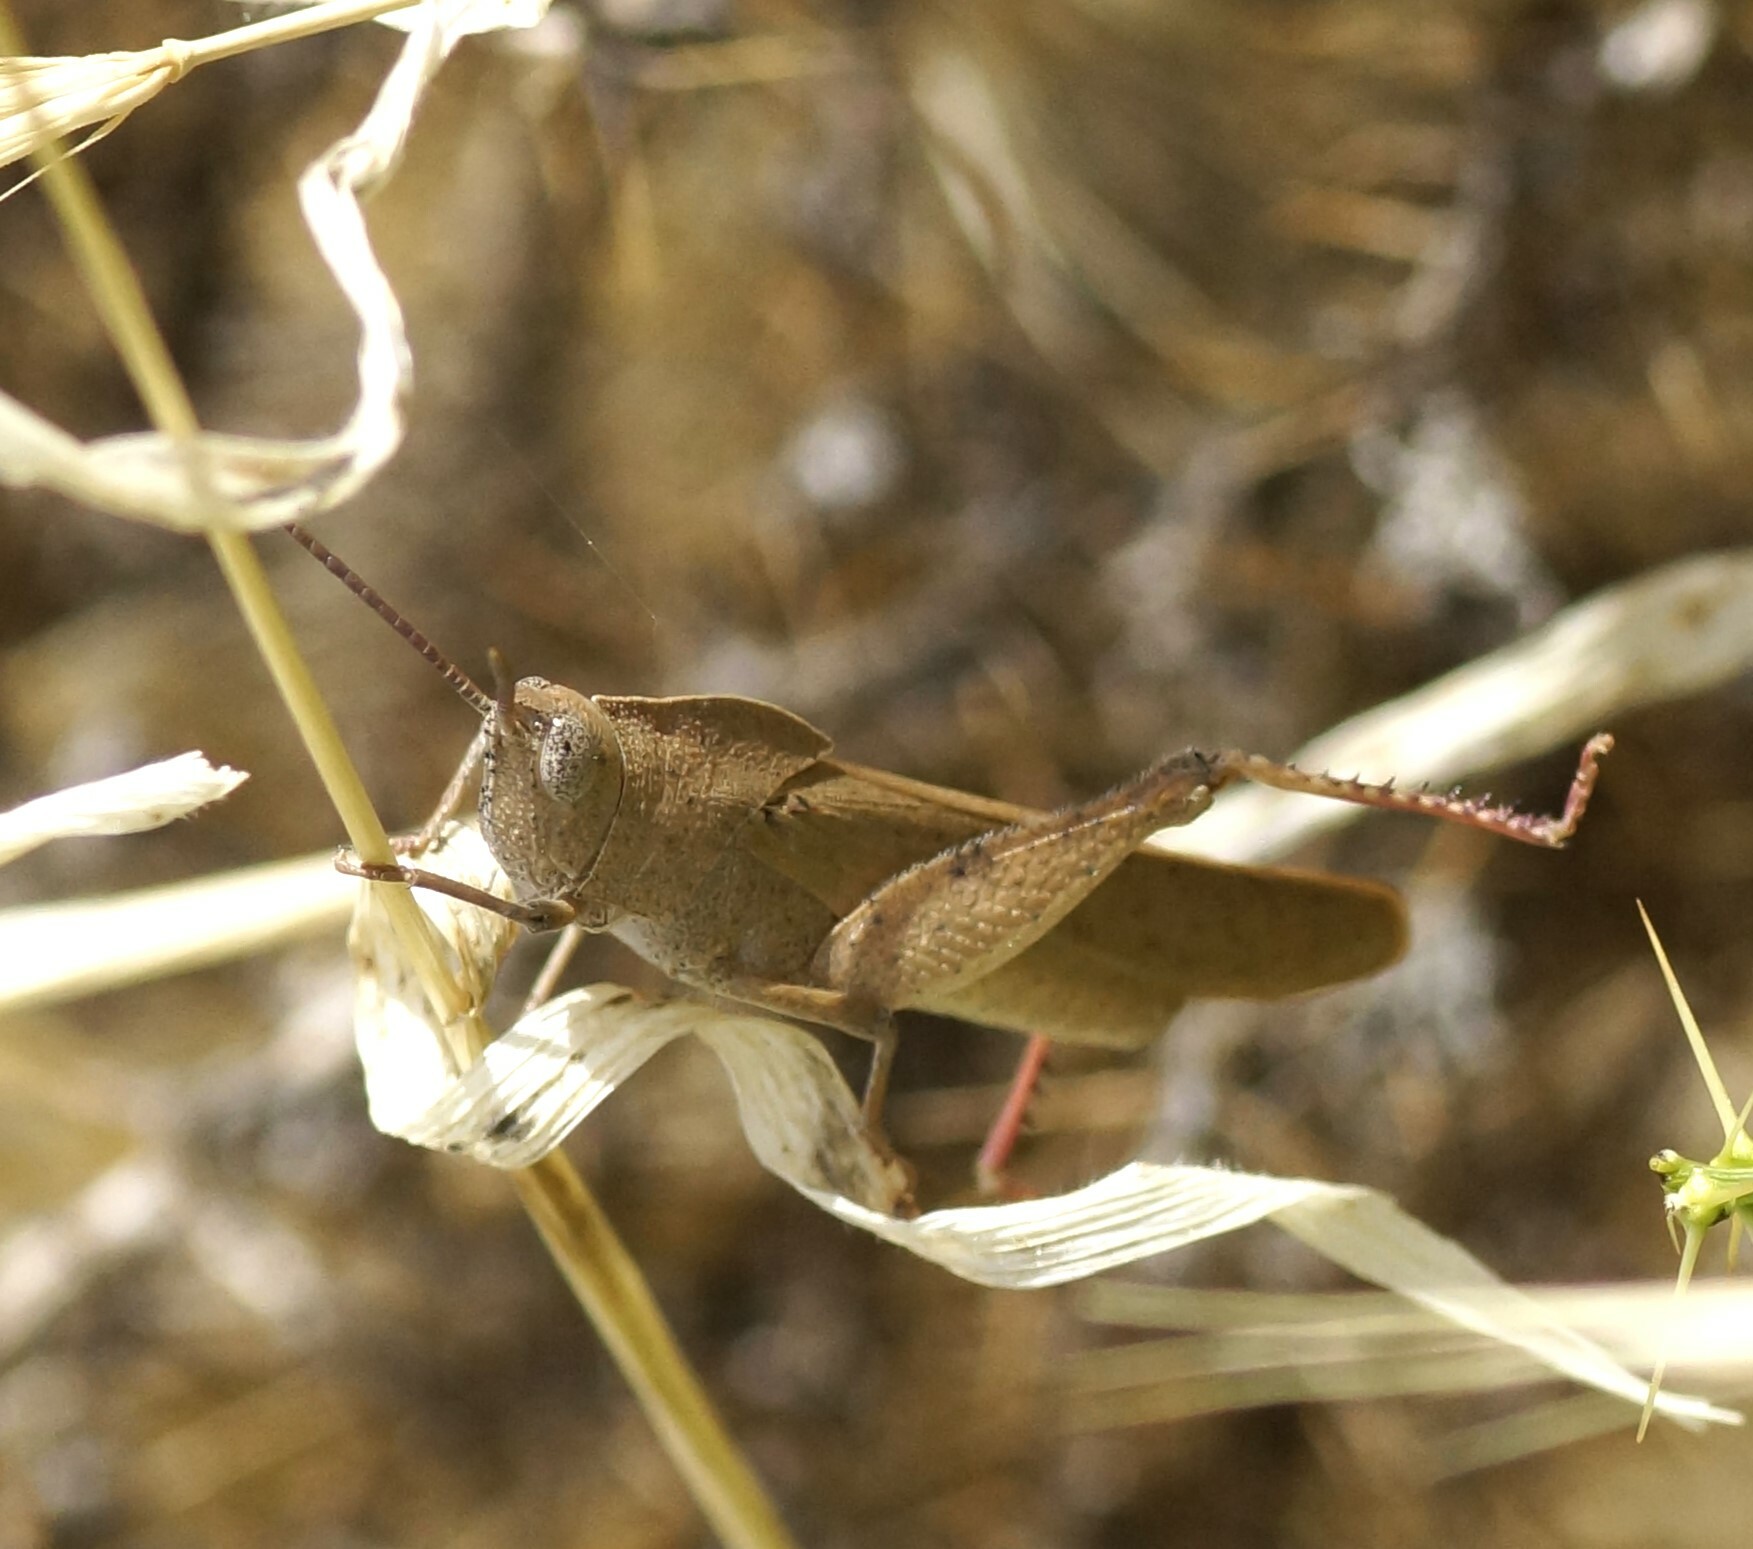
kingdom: Animalia
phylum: Arthropoda
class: Insecta
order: Orthoptera
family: Acrididae
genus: Goniaea
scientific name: Goniaea australasiae
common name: Gumleaf grasshopper
